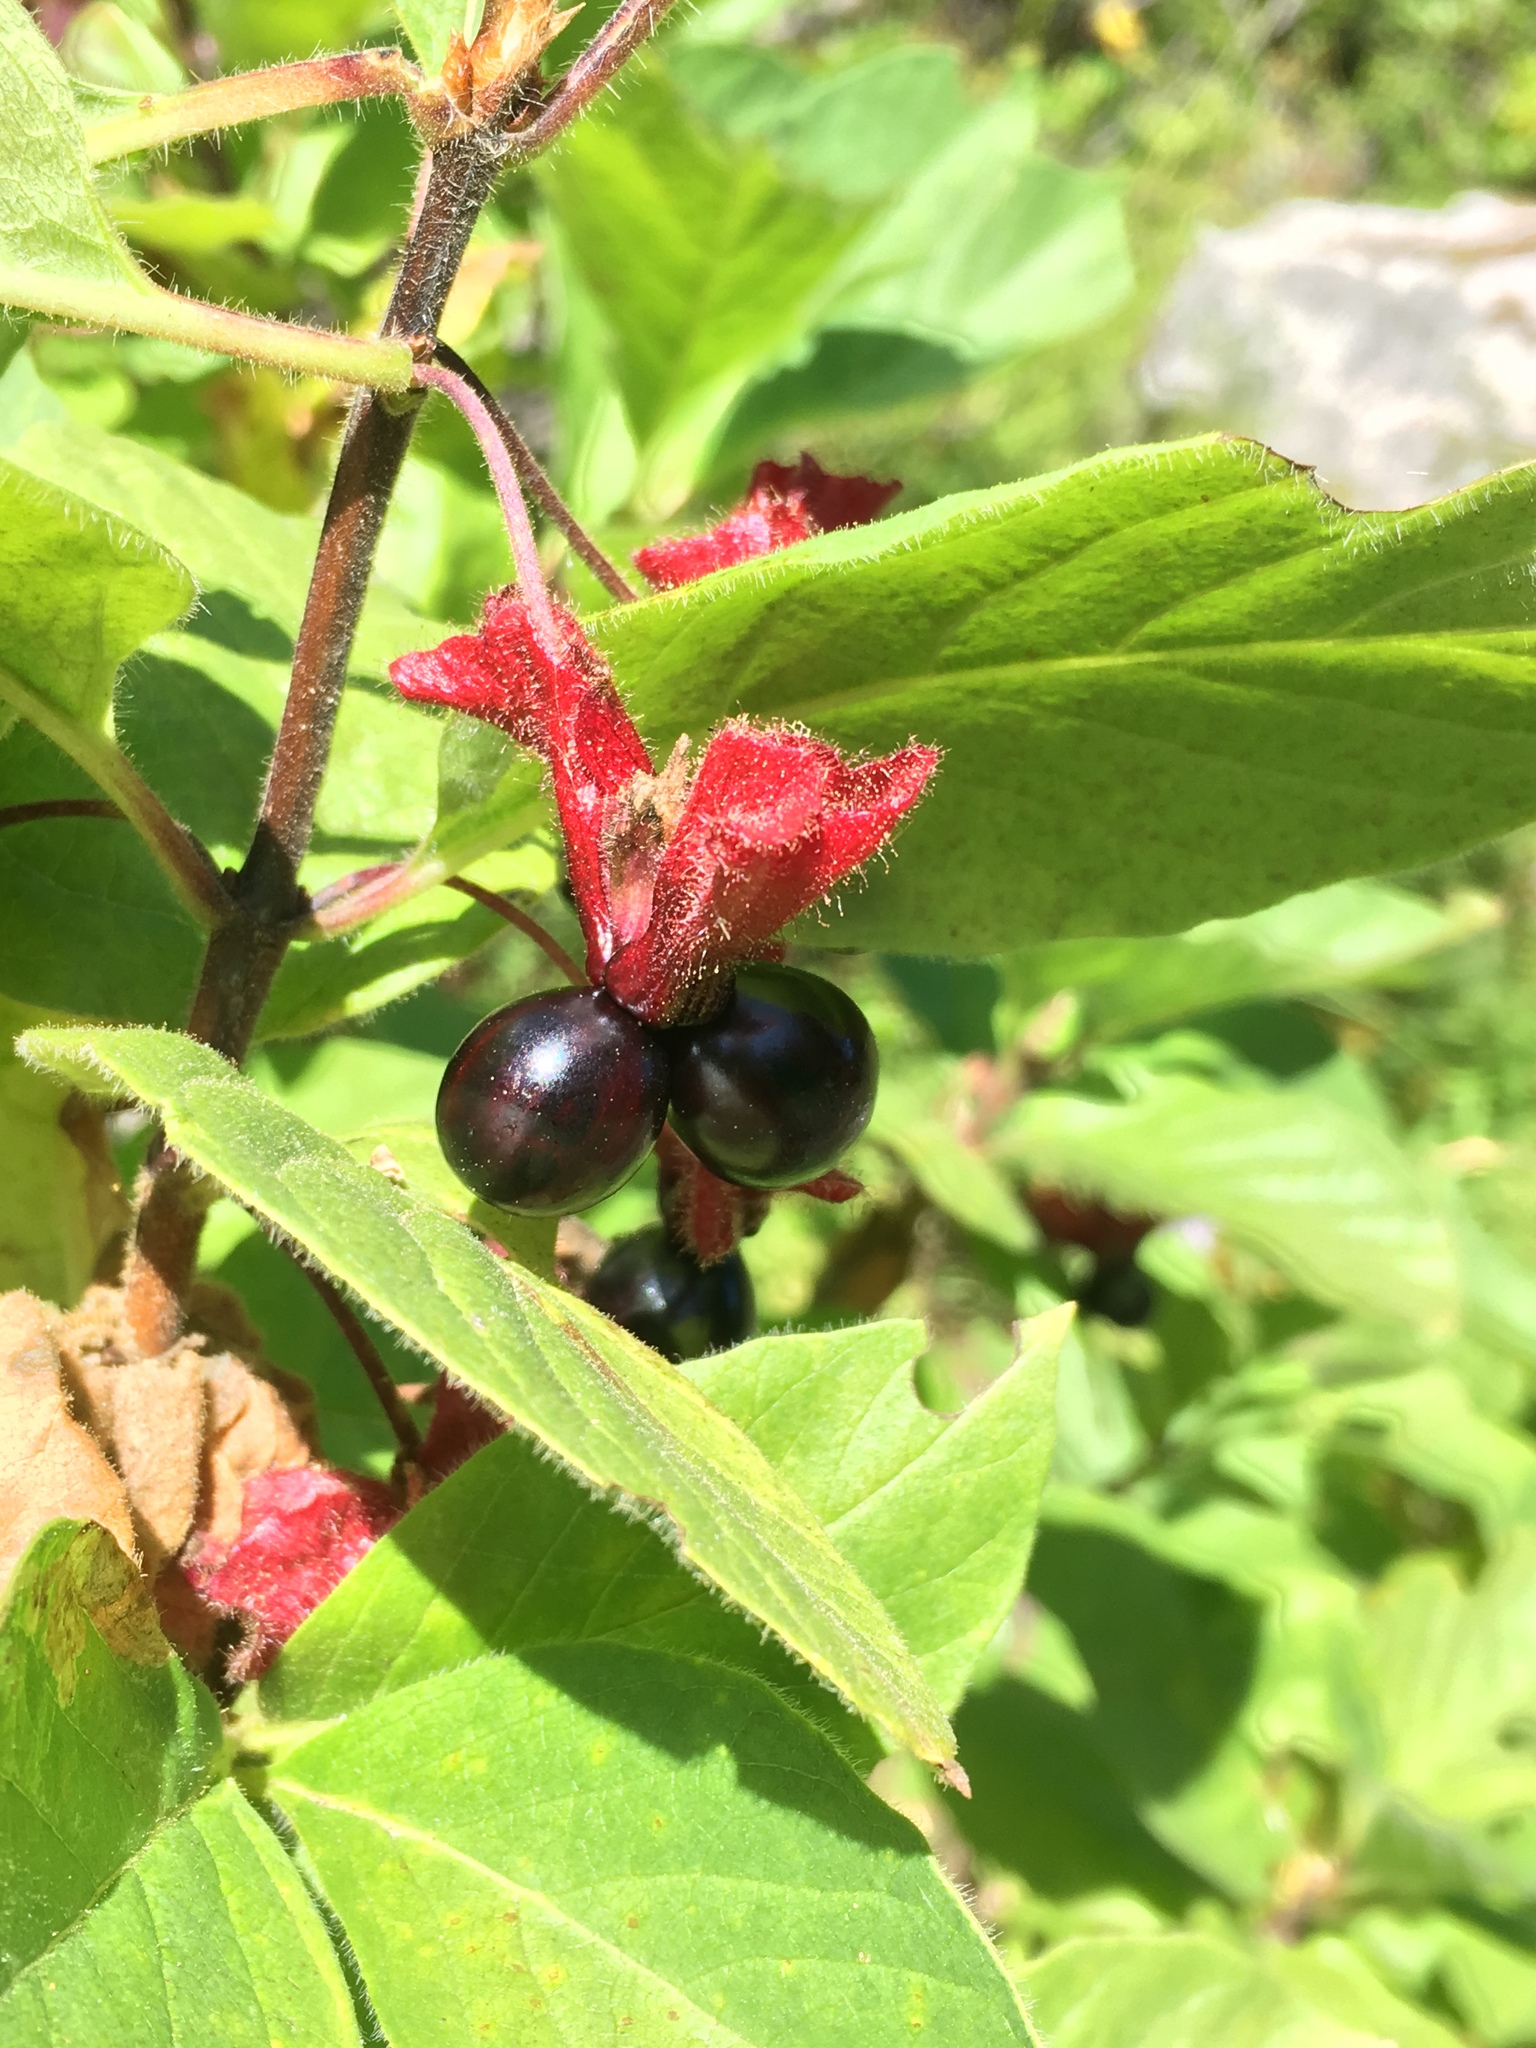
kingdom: Plantae
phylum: Tracheophyta
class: Magnoliopsida
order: Dipsacales
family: Caprifoliaceae
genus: Lonicera
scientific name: Lonicera involucrata
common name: Californian honeysuckle
